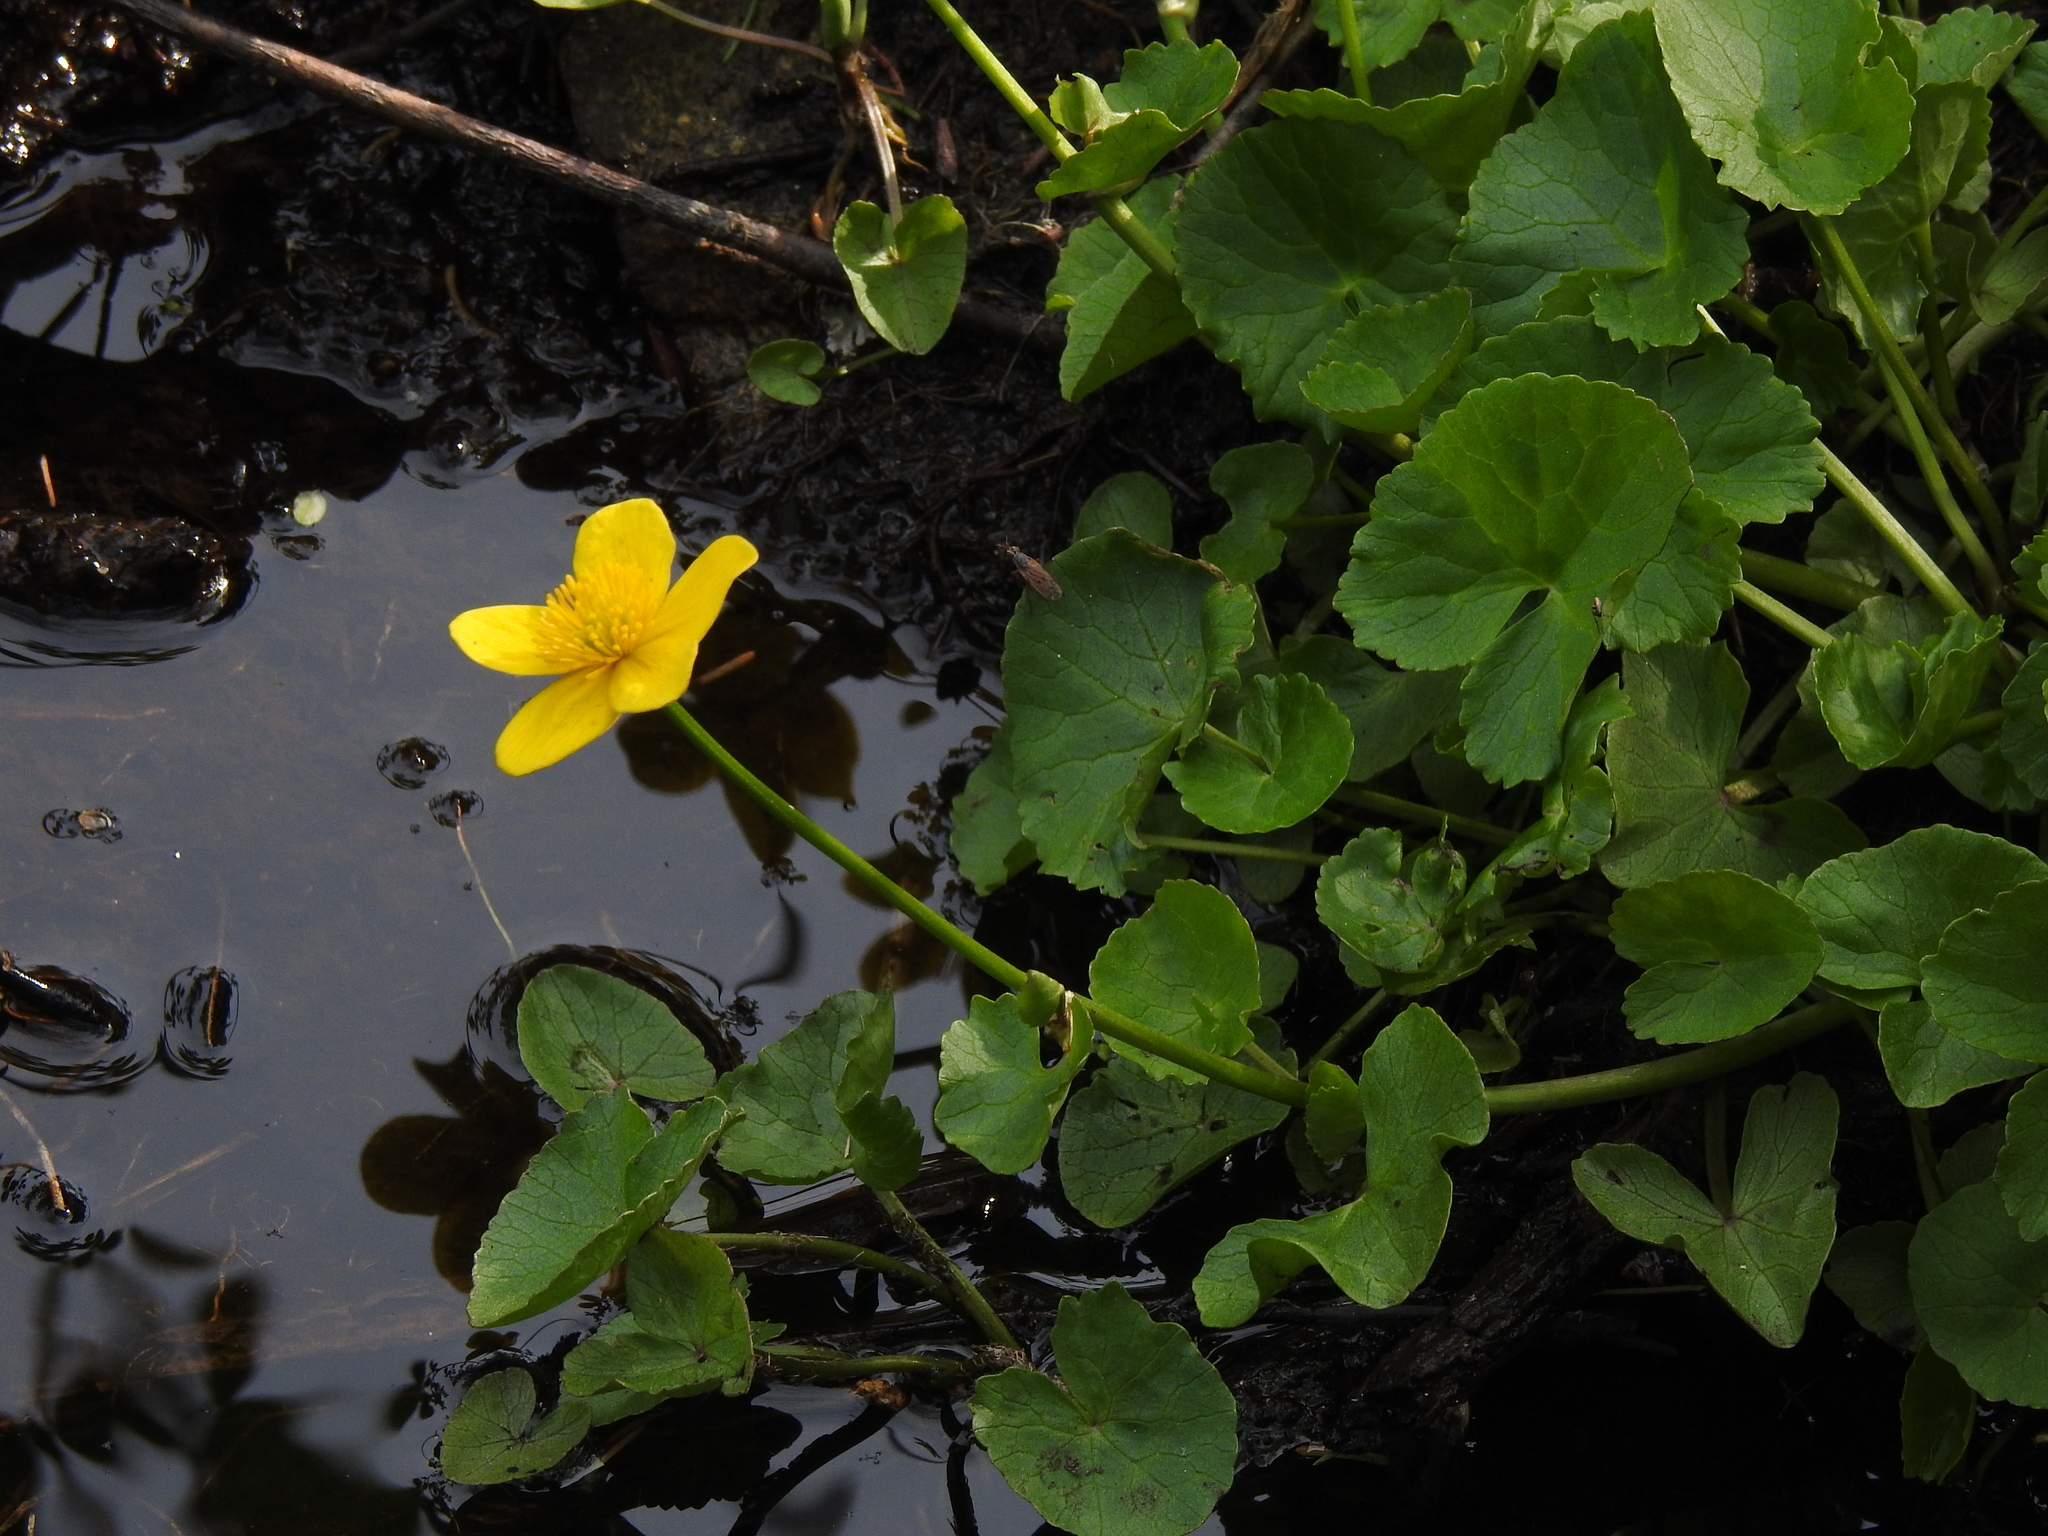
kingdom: Plantae
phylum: Tracheophyta
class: Magnoliopsida
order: Ranunculales
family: Ranunculaceae
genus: Caltha
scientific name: Caltha palustris
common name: Marsh marigold
